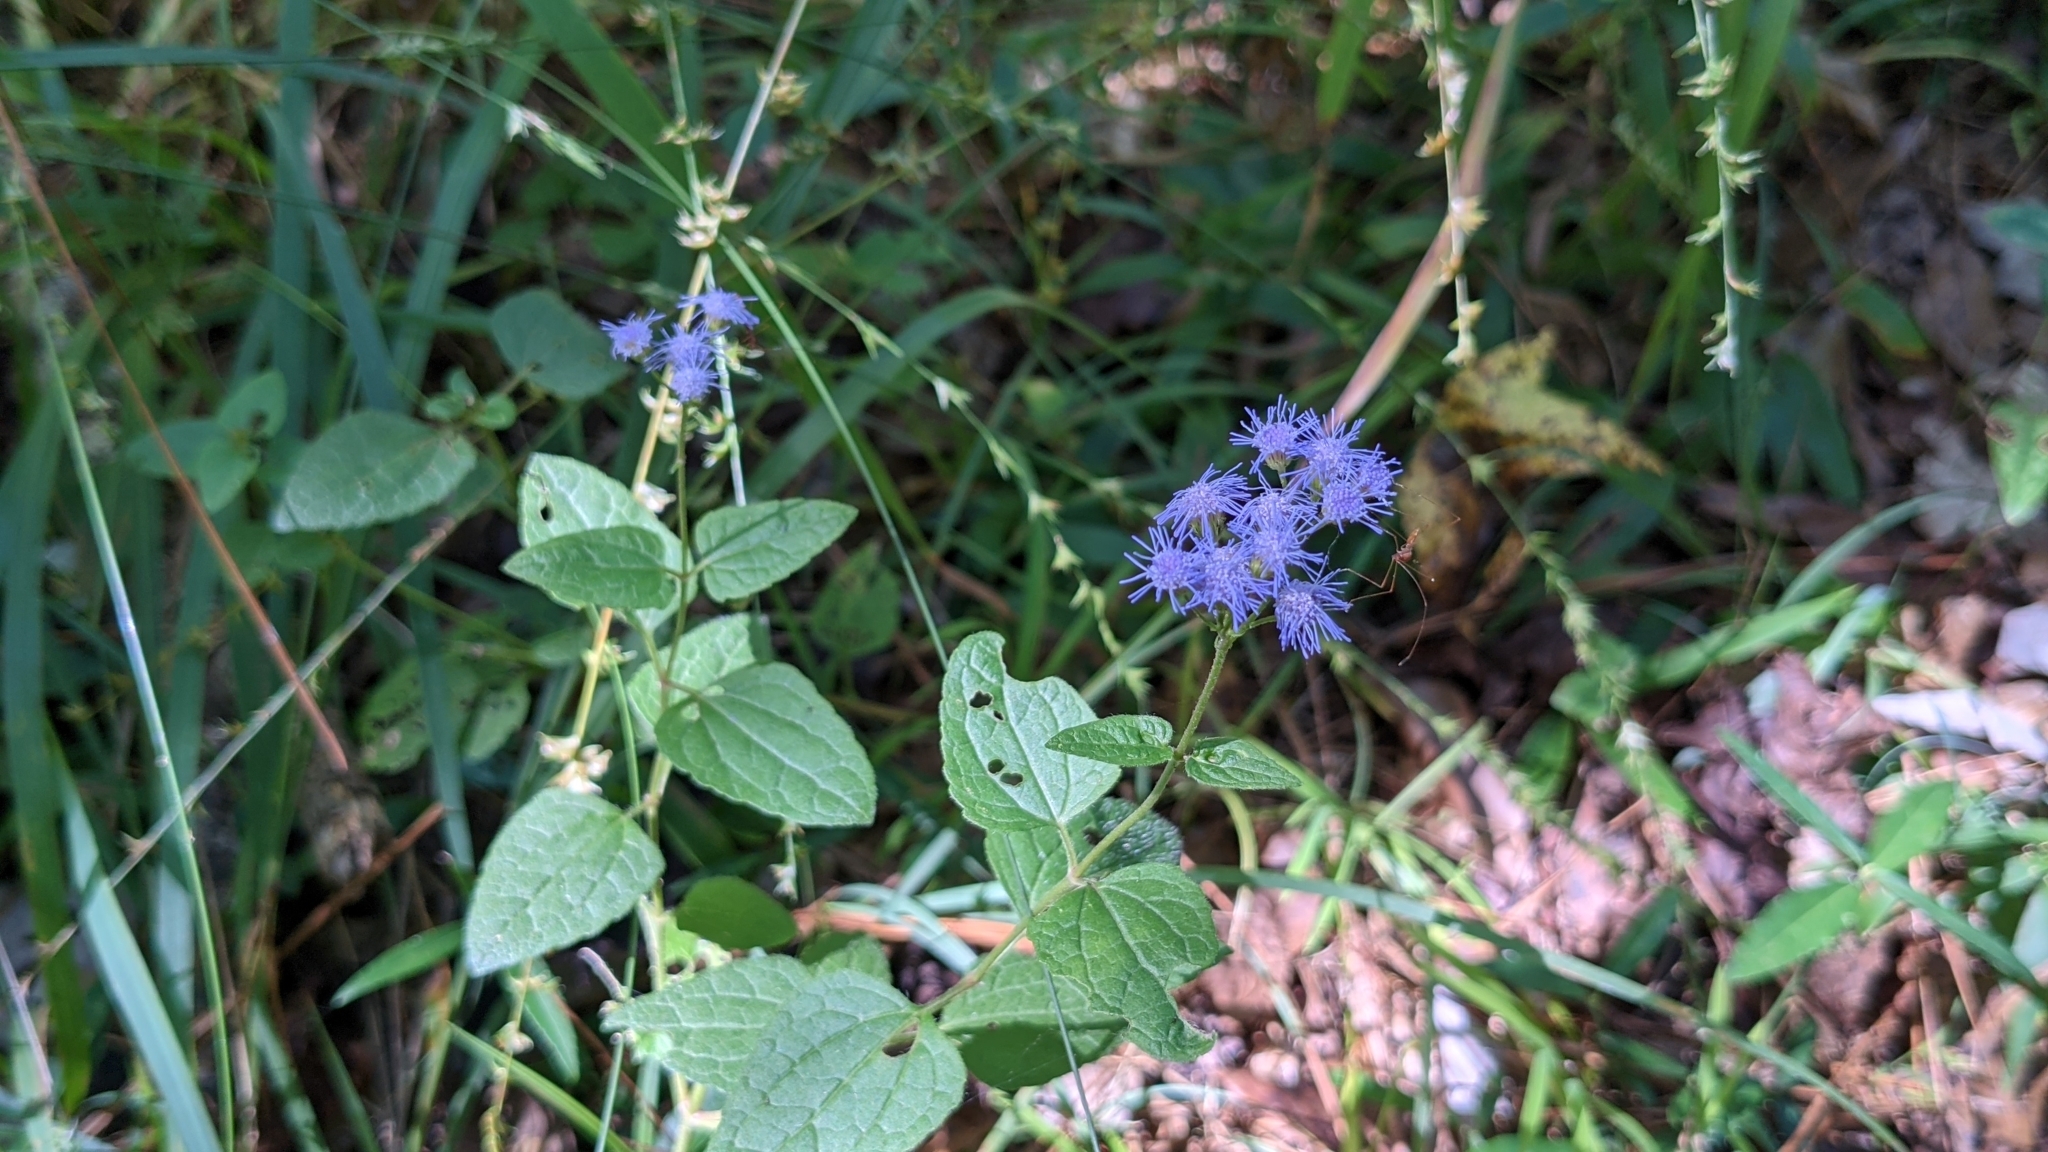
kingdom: Plantae
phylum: Tracheophyta
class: Magnoliopsida
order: Asterales
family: Asteraceae
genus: Conoclinium
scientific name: Conoclinium coelestinum
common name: Blue mistflower
